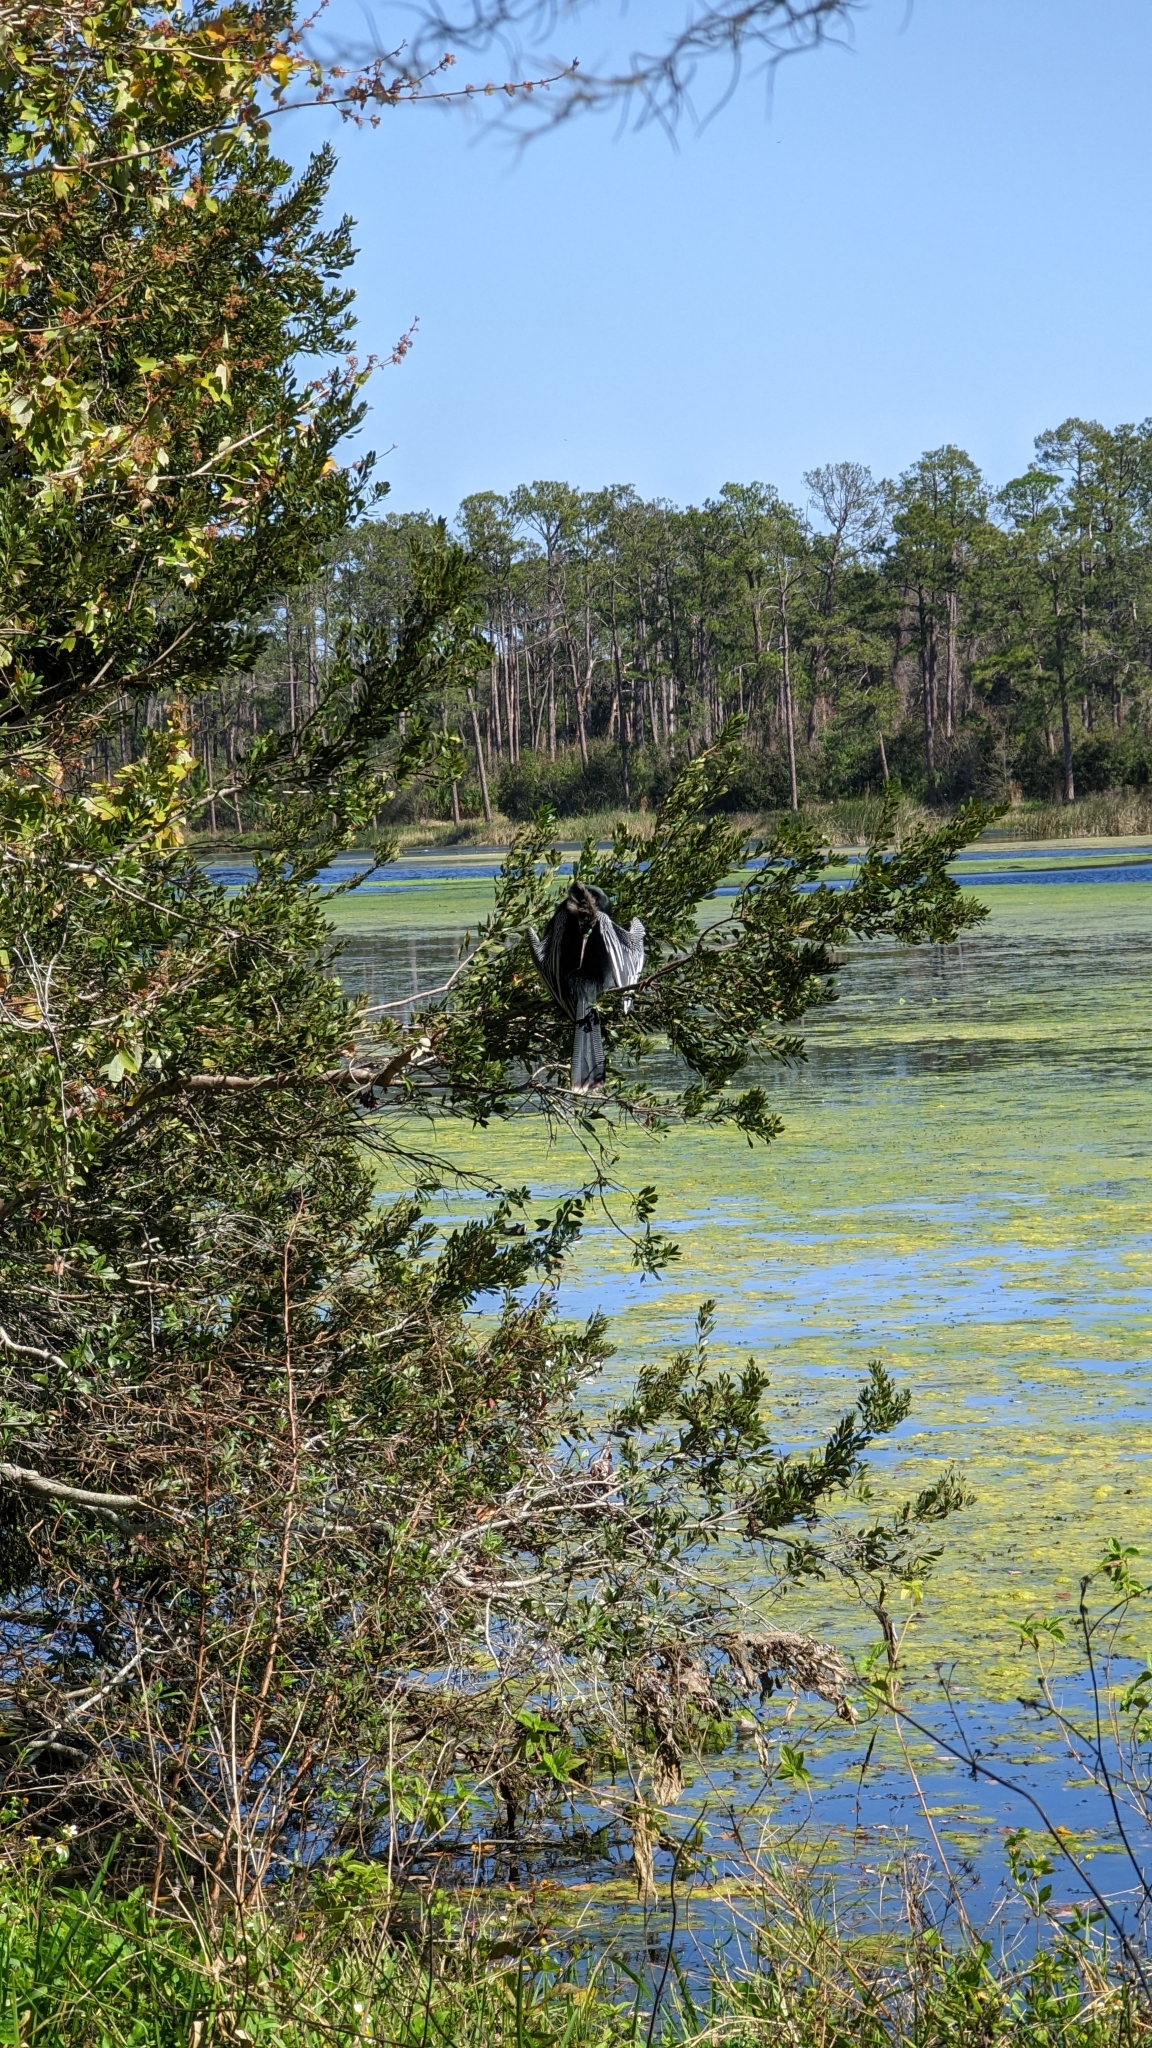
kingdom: Animalia
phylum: Chordata
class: Aves
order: Suliformes
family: Anhingidae
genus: Anhinga
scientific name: Anhinga anhinga
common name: Anhinga
